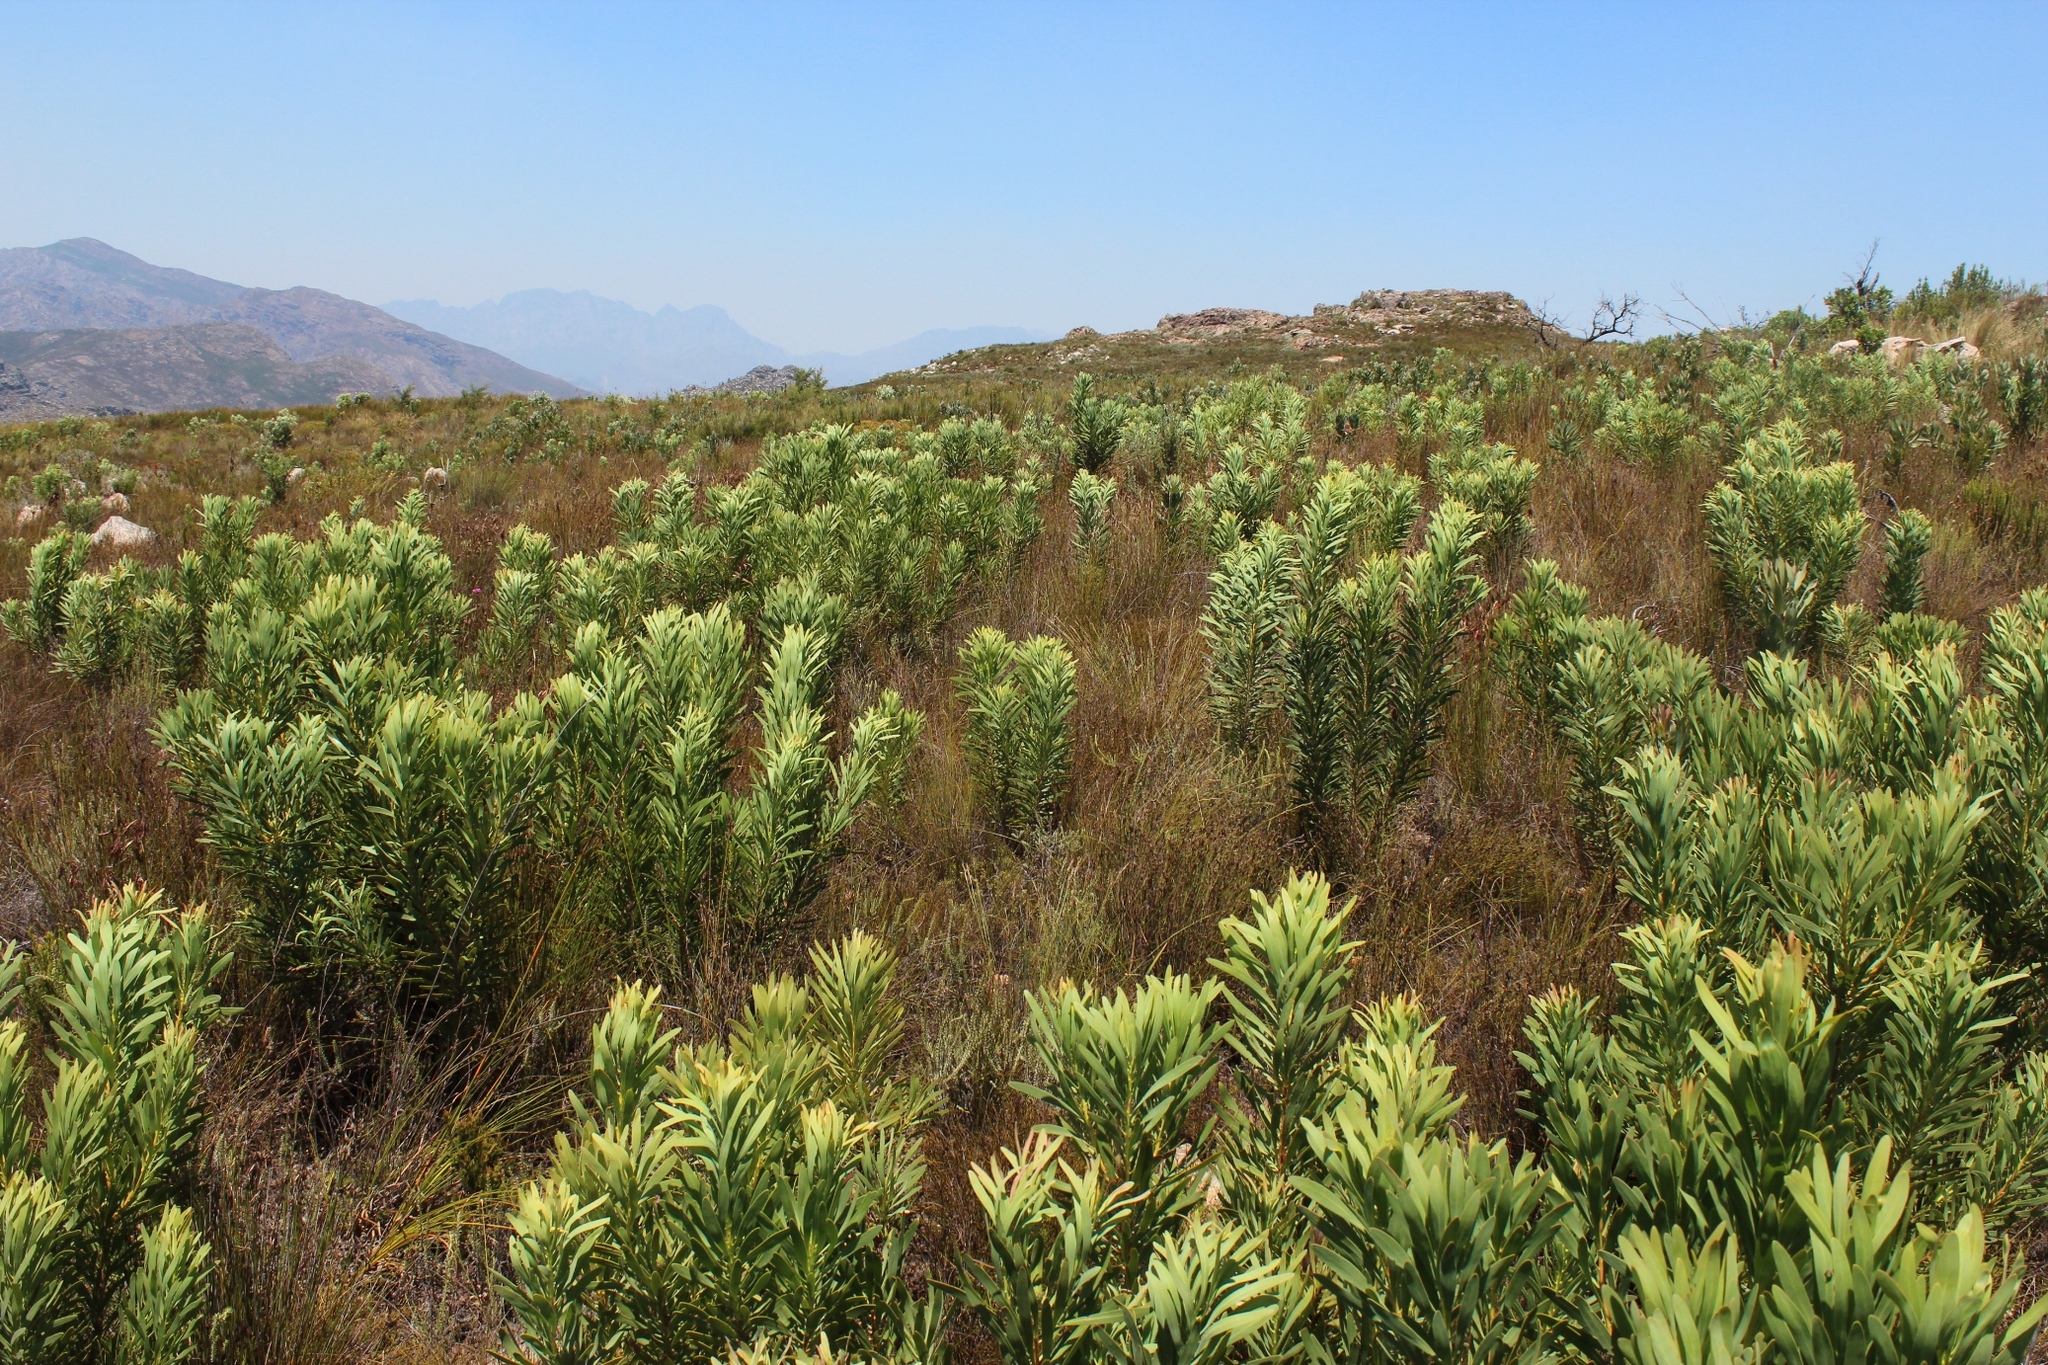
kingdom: Plantae
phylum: Tracheophyta
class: Magnoliopsida
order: Proteales
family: Proteaceae
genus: Protea
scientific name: Protea repens
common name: Sugarbush
